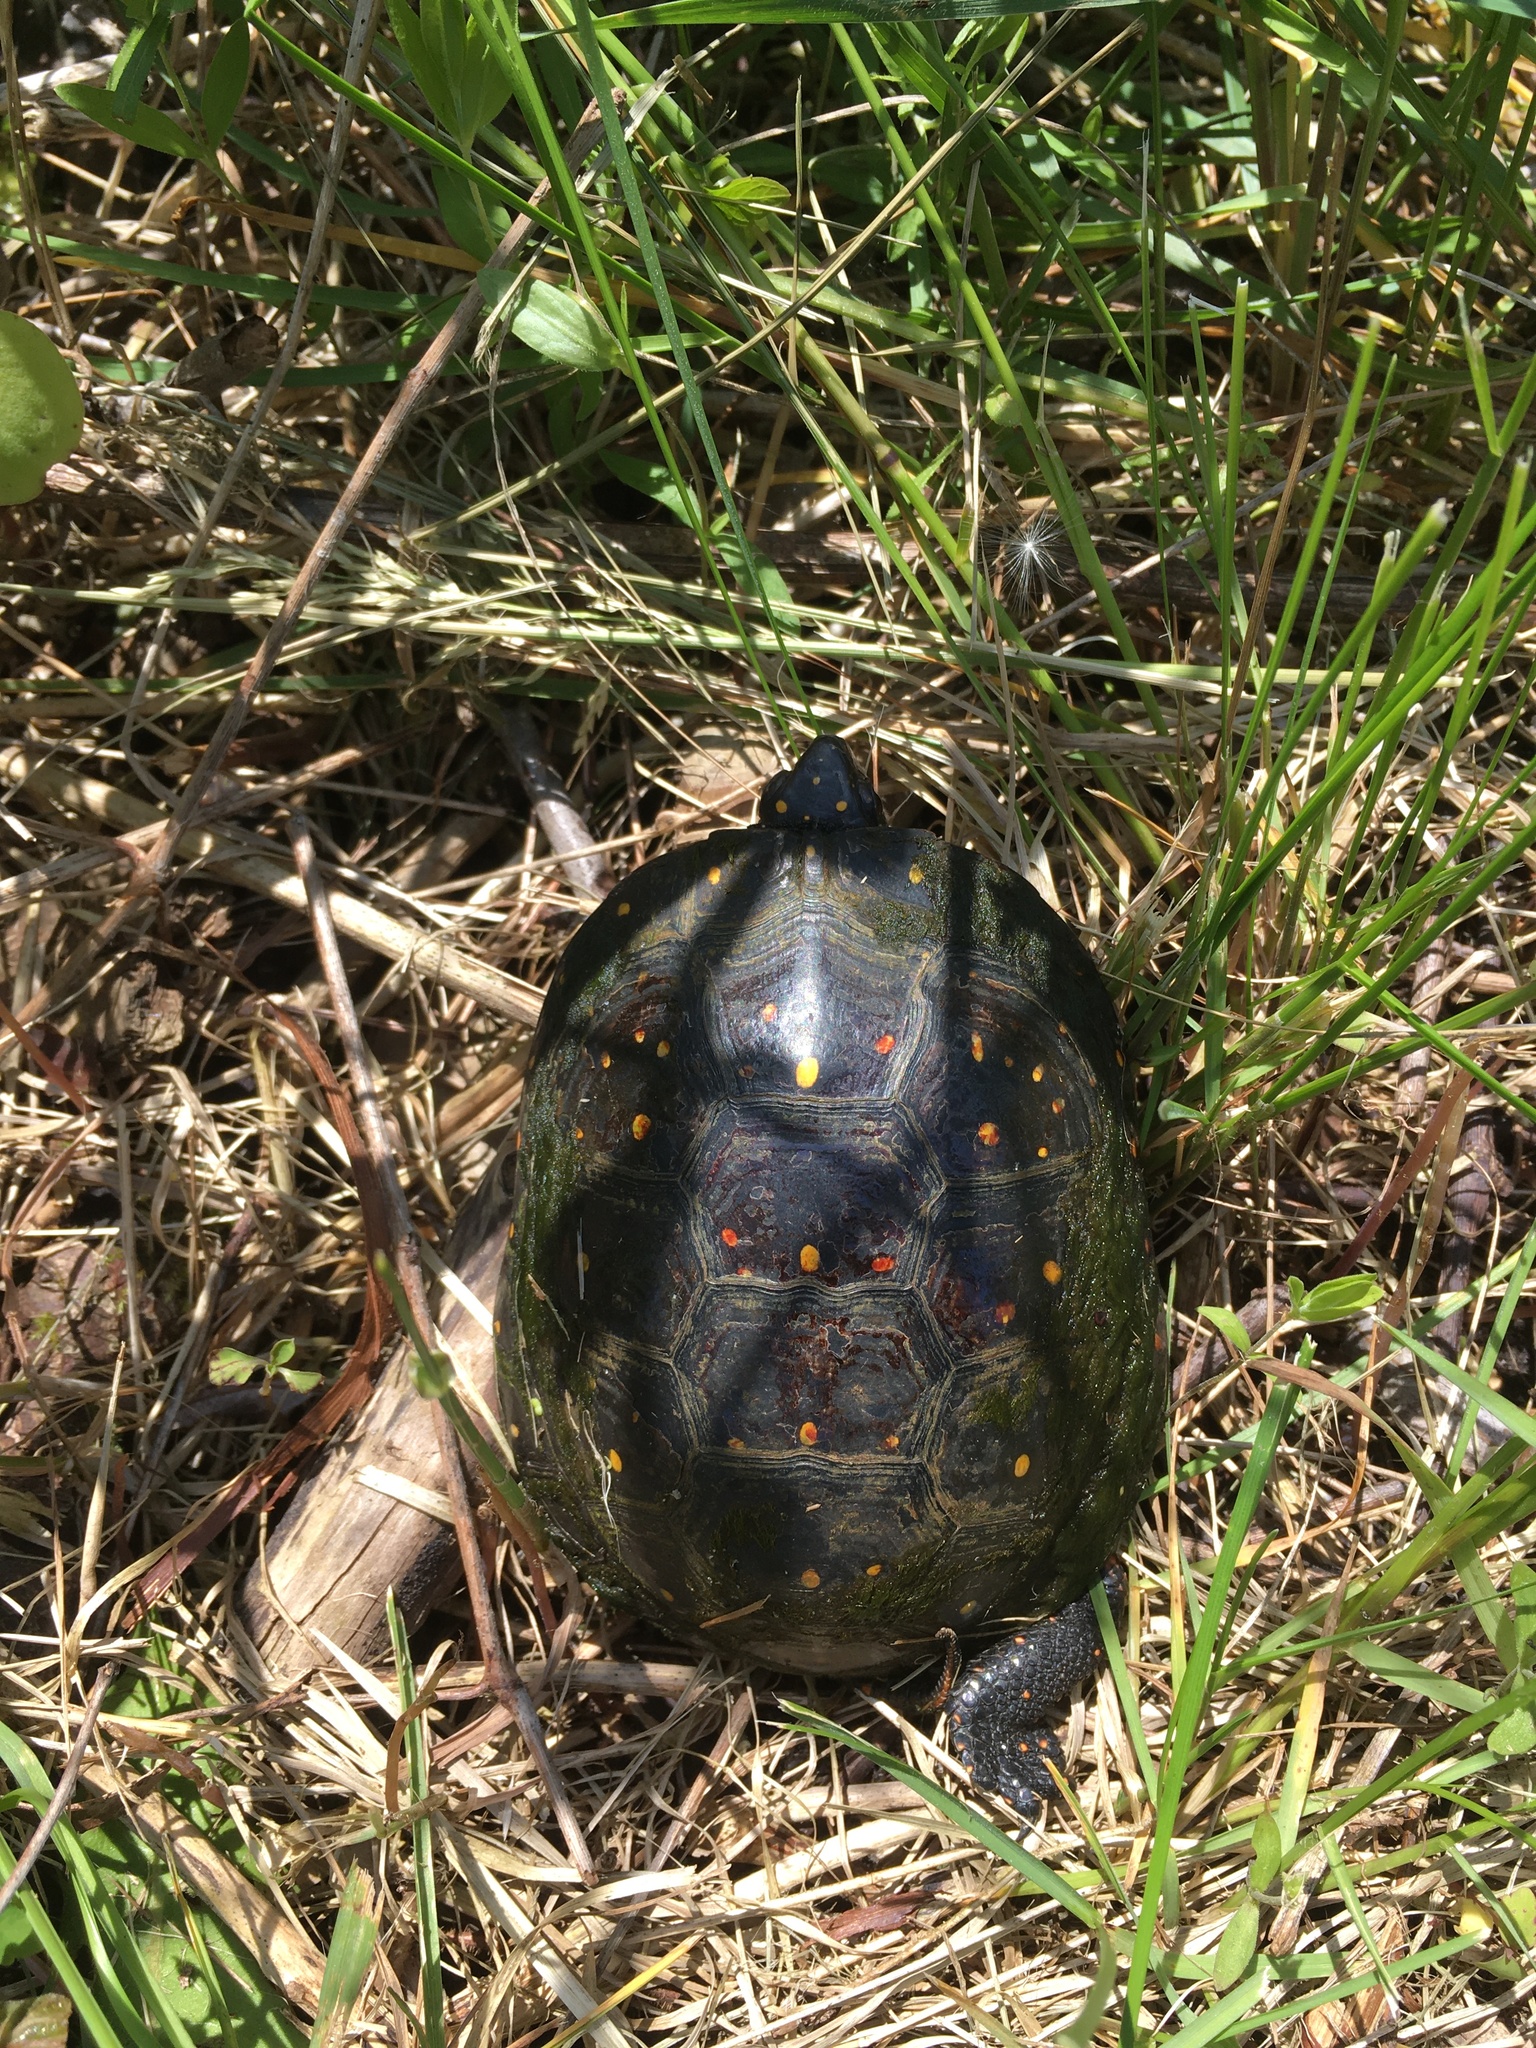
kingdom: Animalia
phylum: Chordata
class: Testudines
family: Emydidae
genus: Clemmys
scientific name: Clemmys guttata
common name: Spotted turtle
